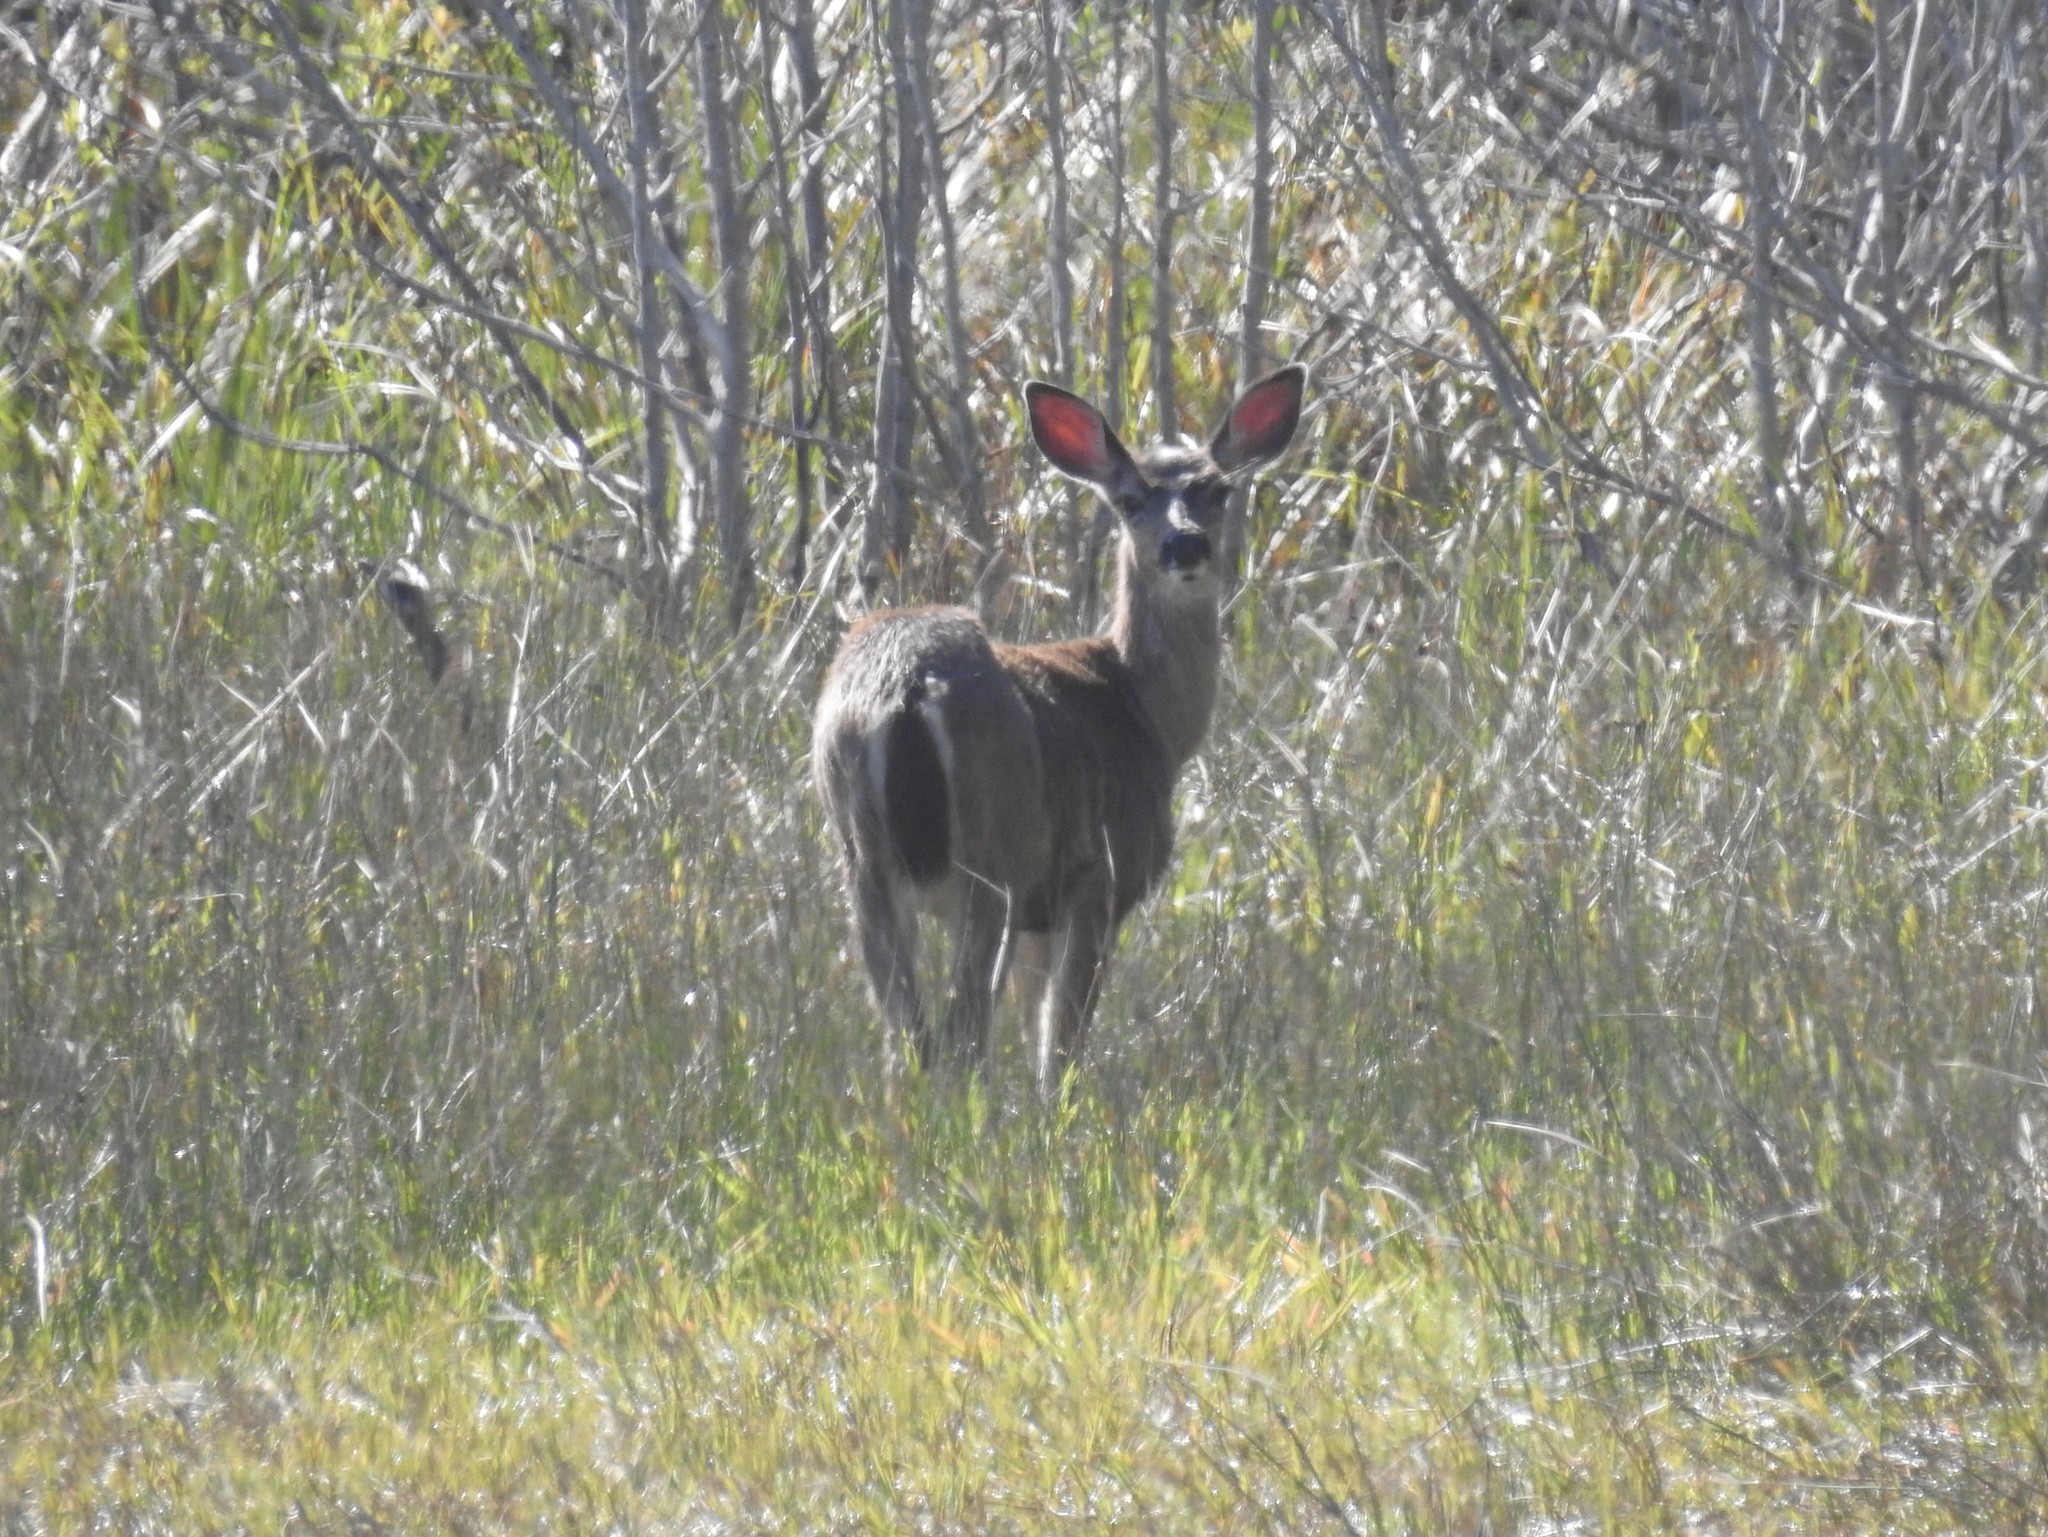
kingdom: Animalia
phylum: Chordata
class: Mammalia
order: Artiodactyla
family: Cervidae
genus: Odocoileus
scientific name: Odocoileus hemionus
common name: Mule deer
